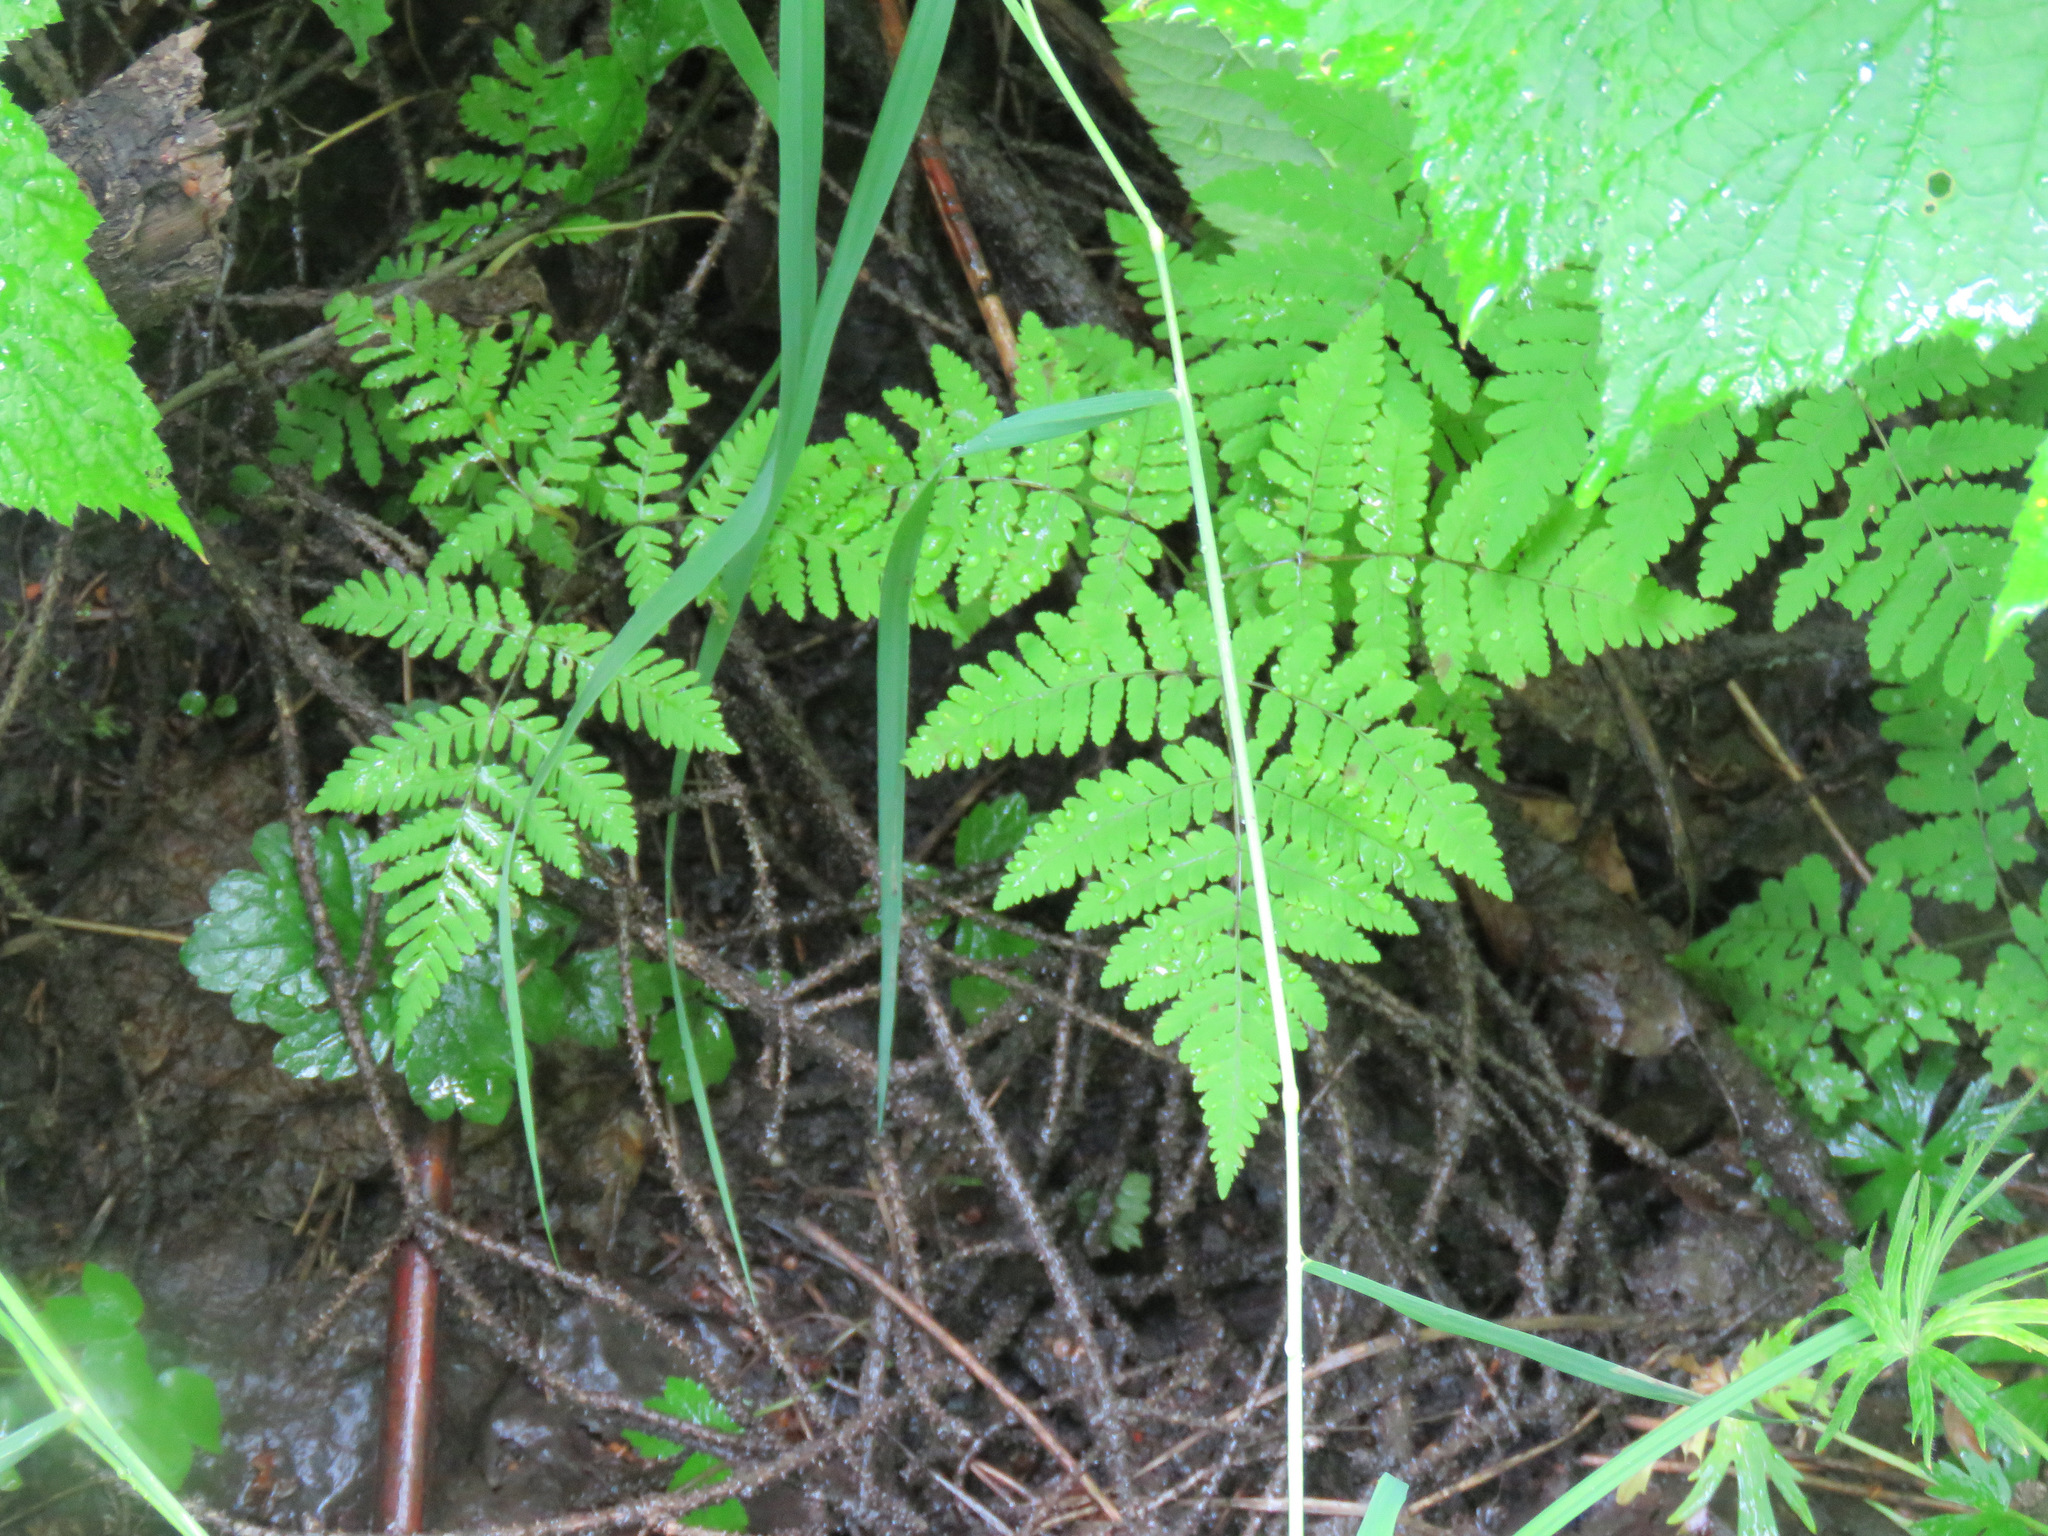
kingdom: Plantae
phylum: Tracheophyta
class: Polypodiopsida
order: Polypodiales
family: Cystopteridaceae
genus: Gymnocarpium
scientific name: Gymnocarpium dryopteris
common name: Oak fern
